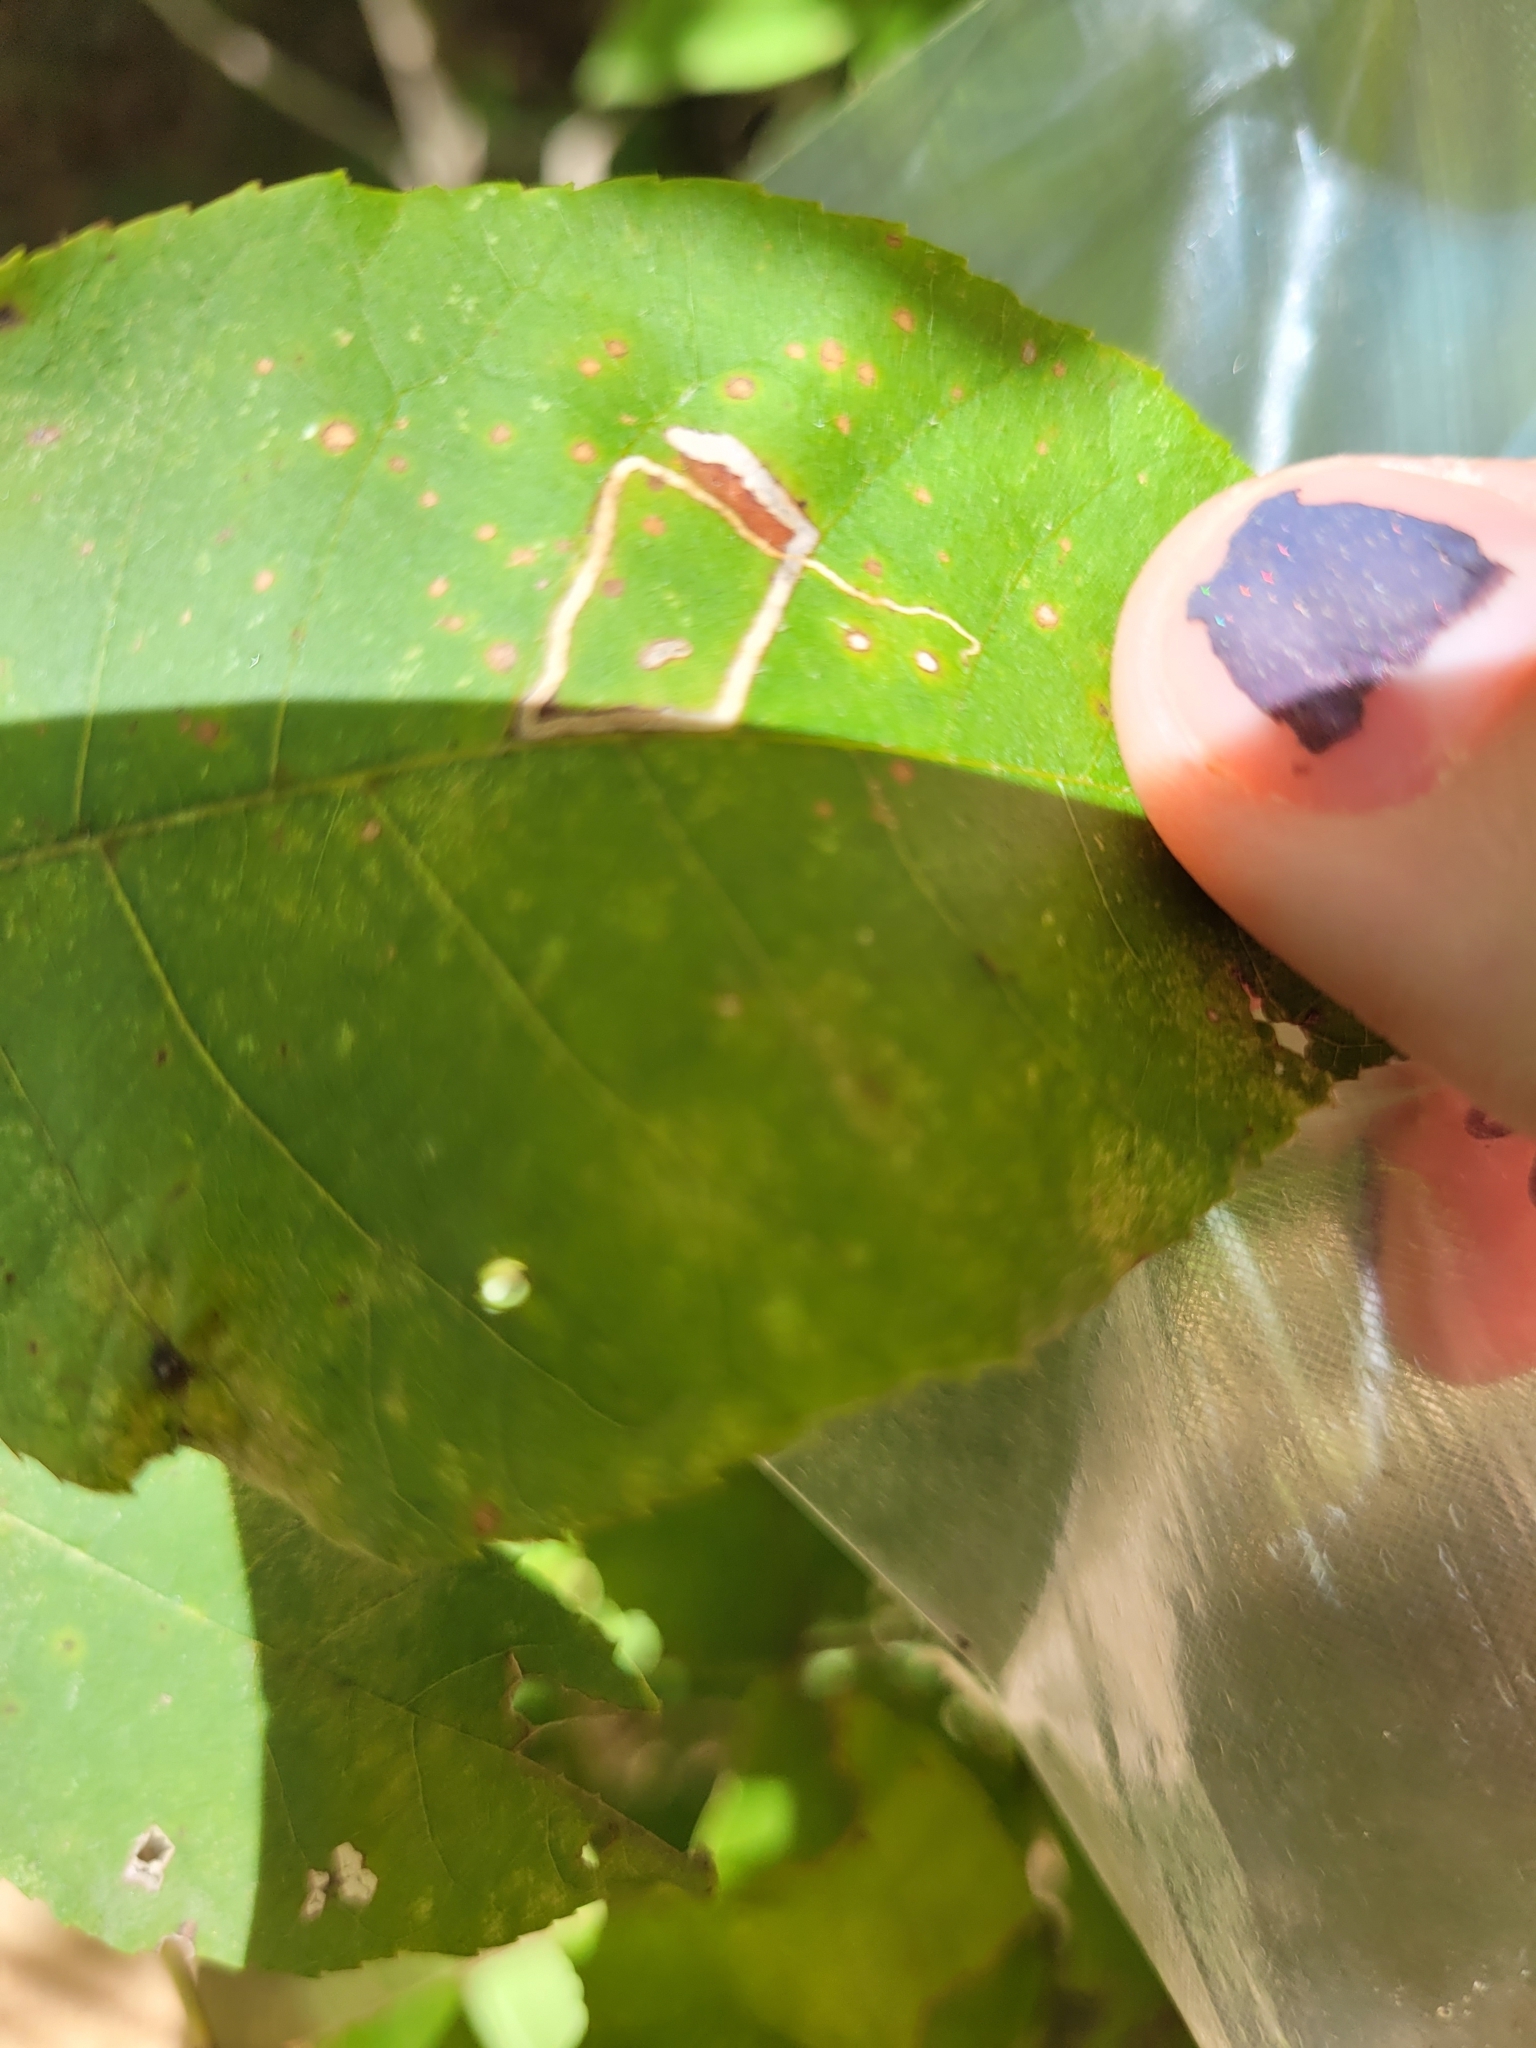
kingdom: Animalia
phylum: Arthropoda
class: Insecta
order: Lepidoptera
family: Nepticulidae
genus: Stigmella
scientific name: Stigmella caryaefoliella
